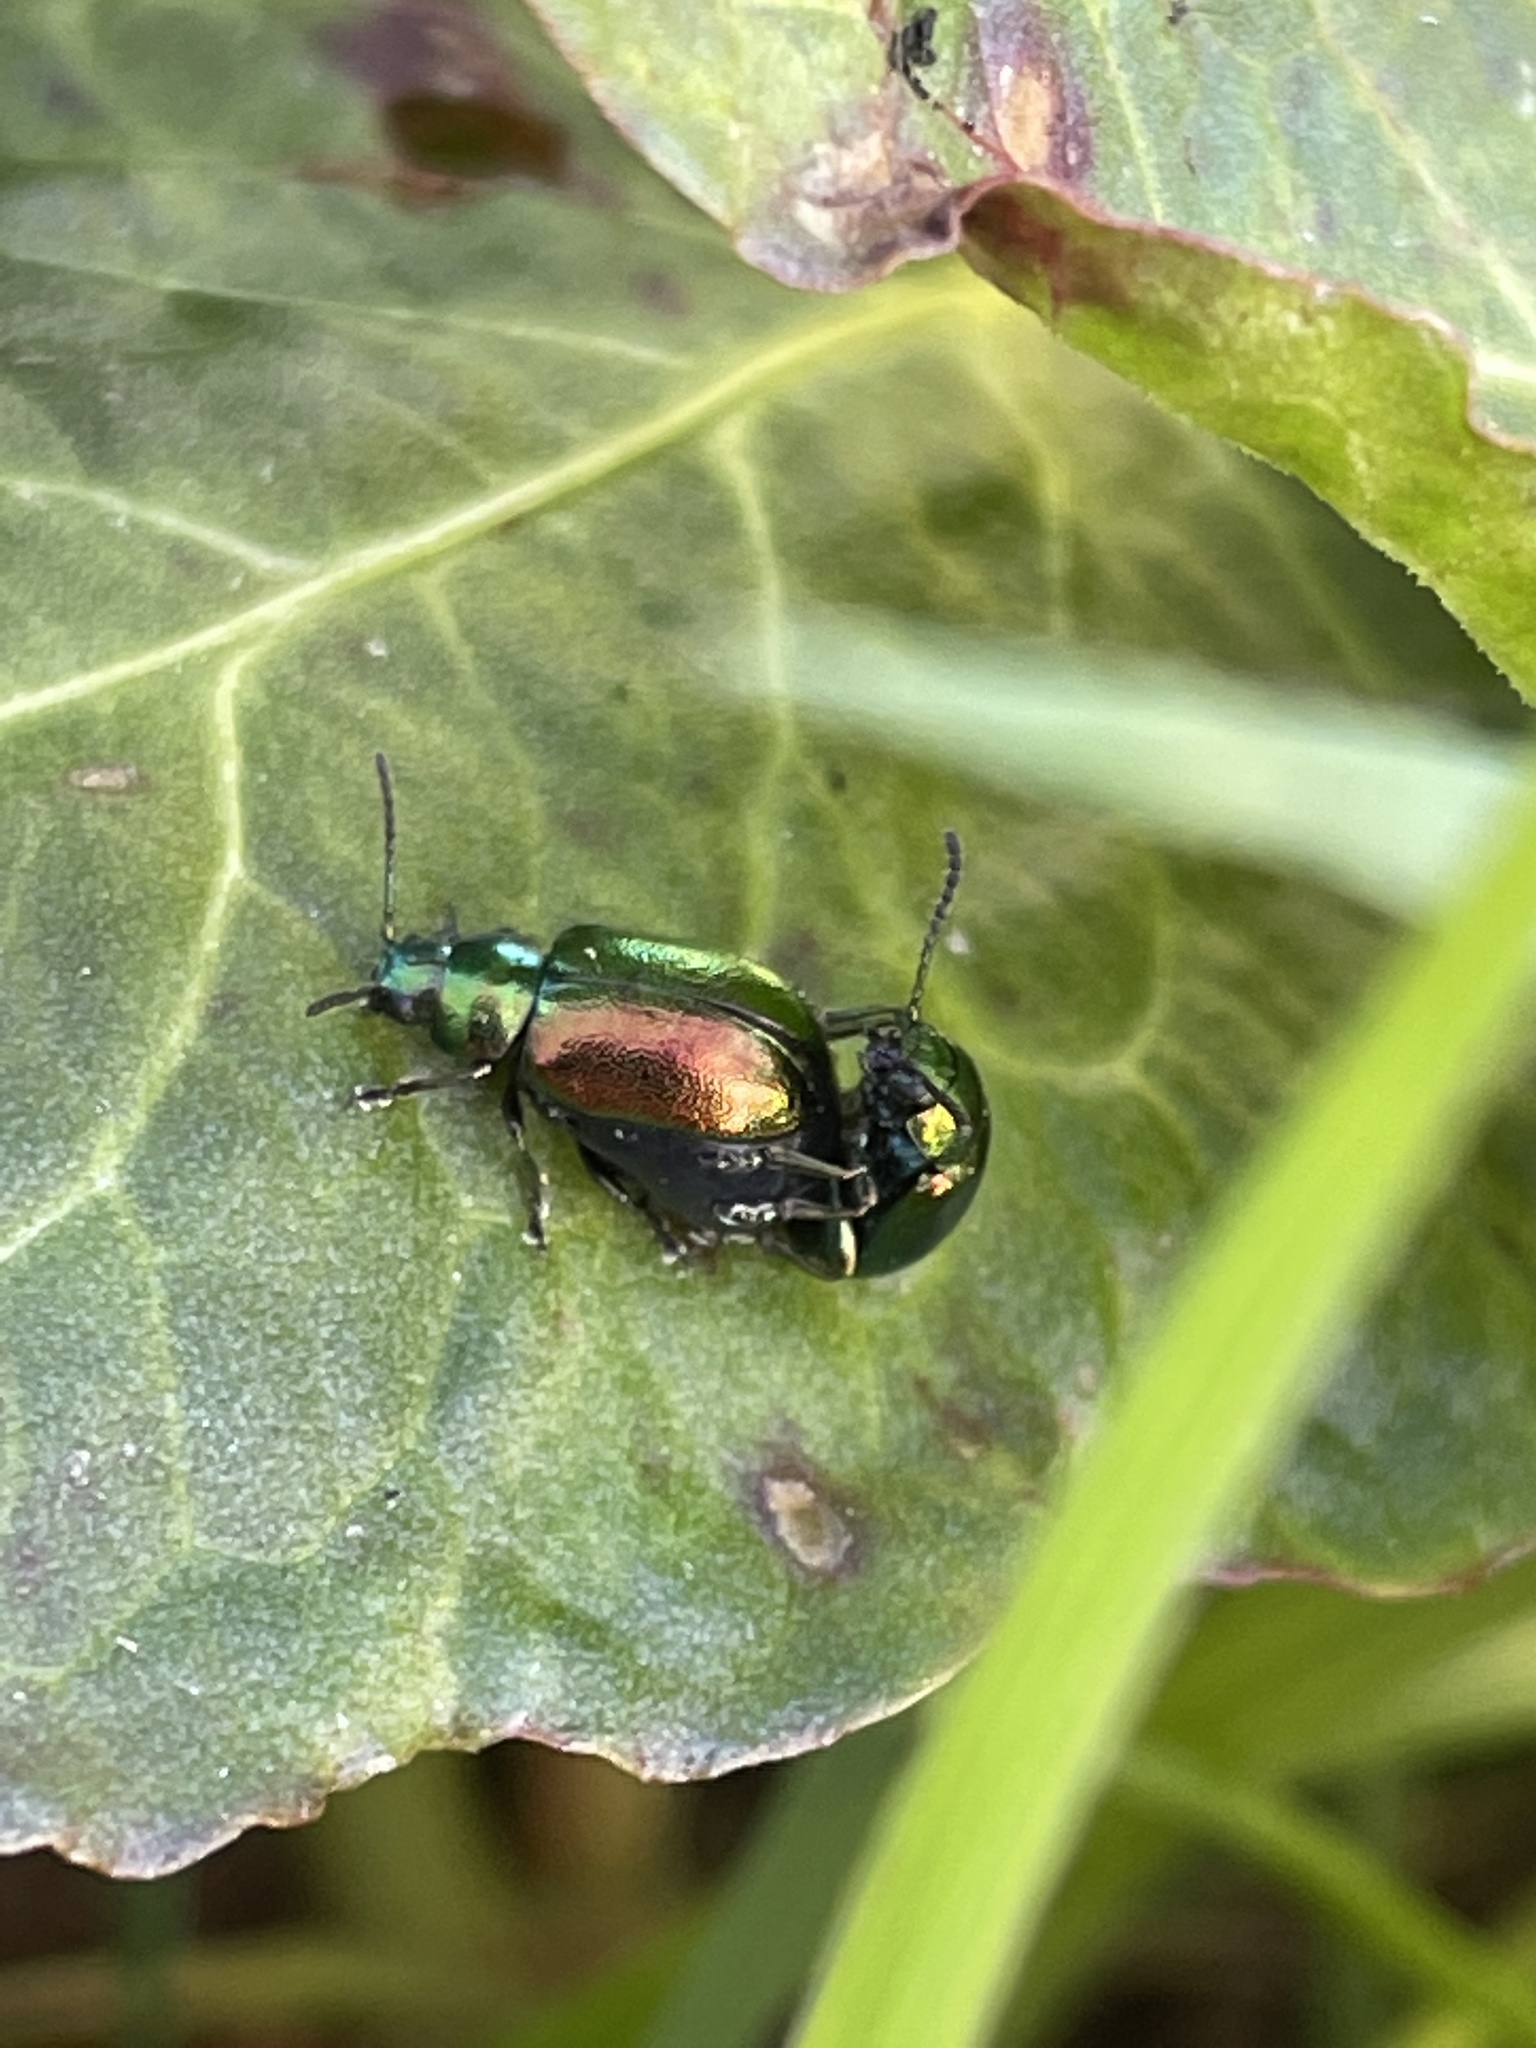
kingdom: Animalia
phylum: Arthropoda
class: Insecta
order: Coleoptera
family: Chrysomelidae
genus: Gastrophysa
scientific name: Gastrophysa viridula
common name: Green dock beetle
